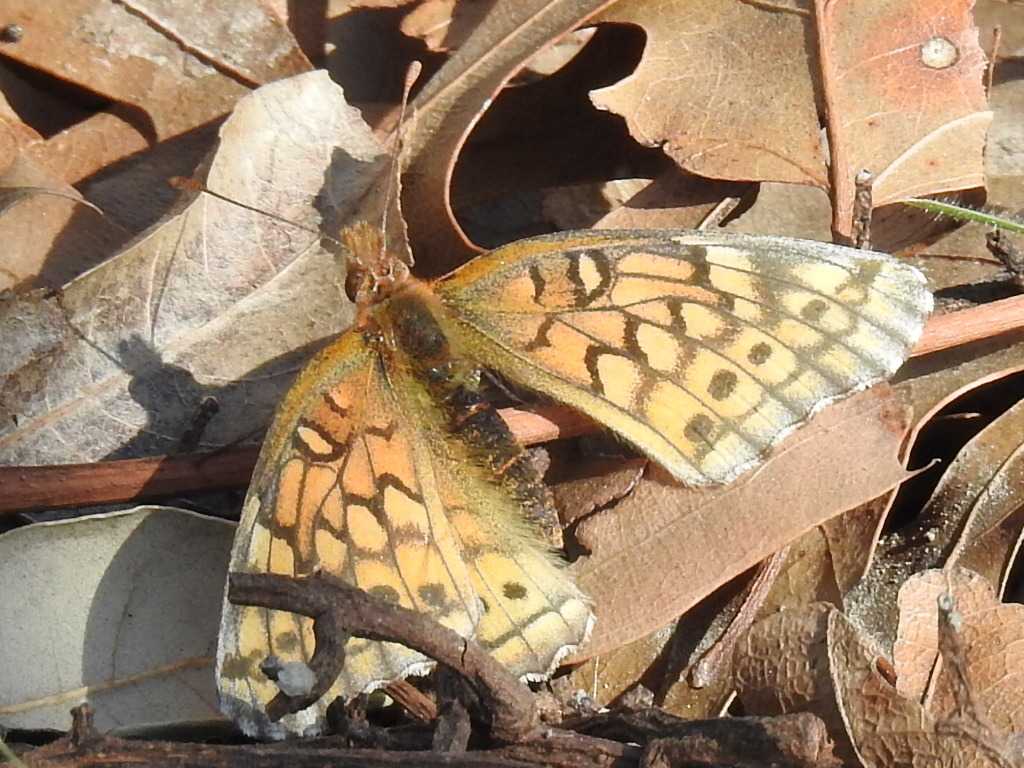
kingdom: Animalia
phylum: Arthropoda
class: Insecta
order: Lepidoptera
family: Nymphalidae
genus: Euptoieta
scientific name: Euptoieta claudia
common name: Variegated fritillary
